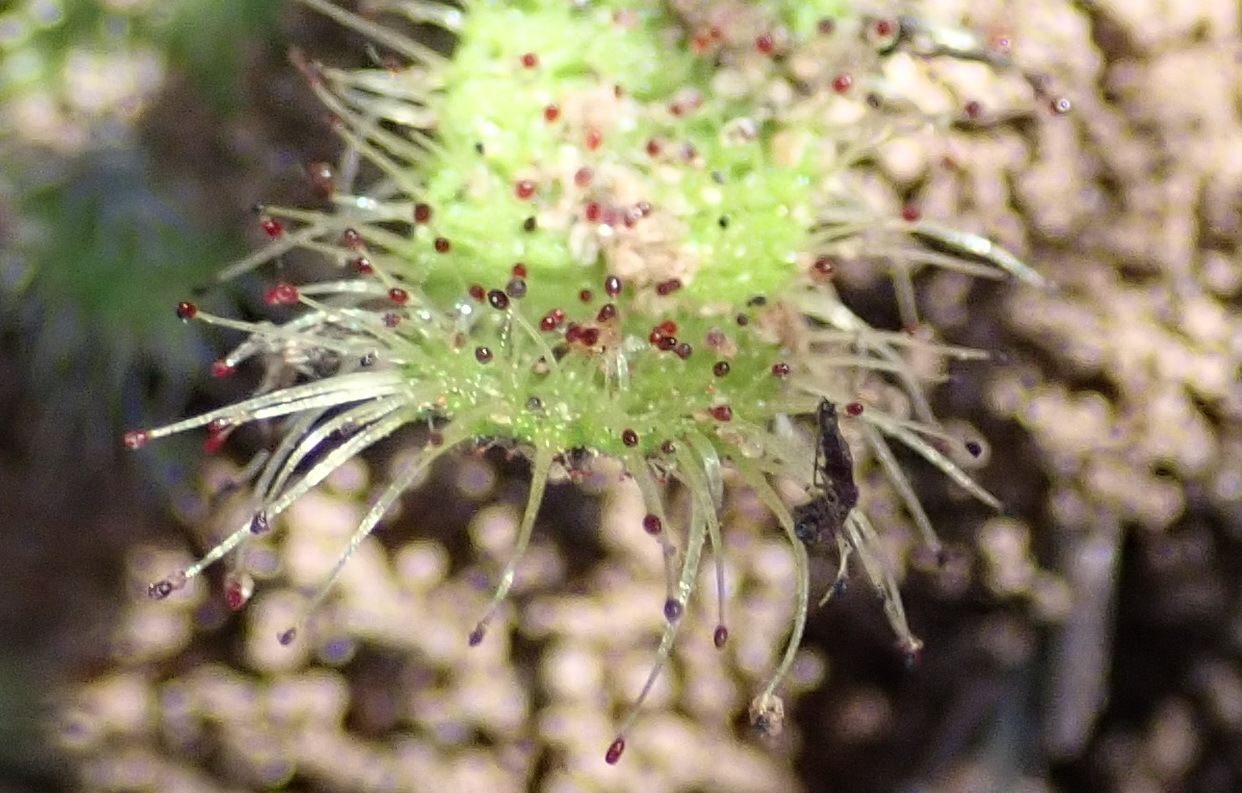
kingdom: Plantae
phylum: Tracheophyta
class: Magnoliopsida
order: Caryophyllales
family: Droseraceae
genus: Drosera
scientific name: Drosera cistiflora
